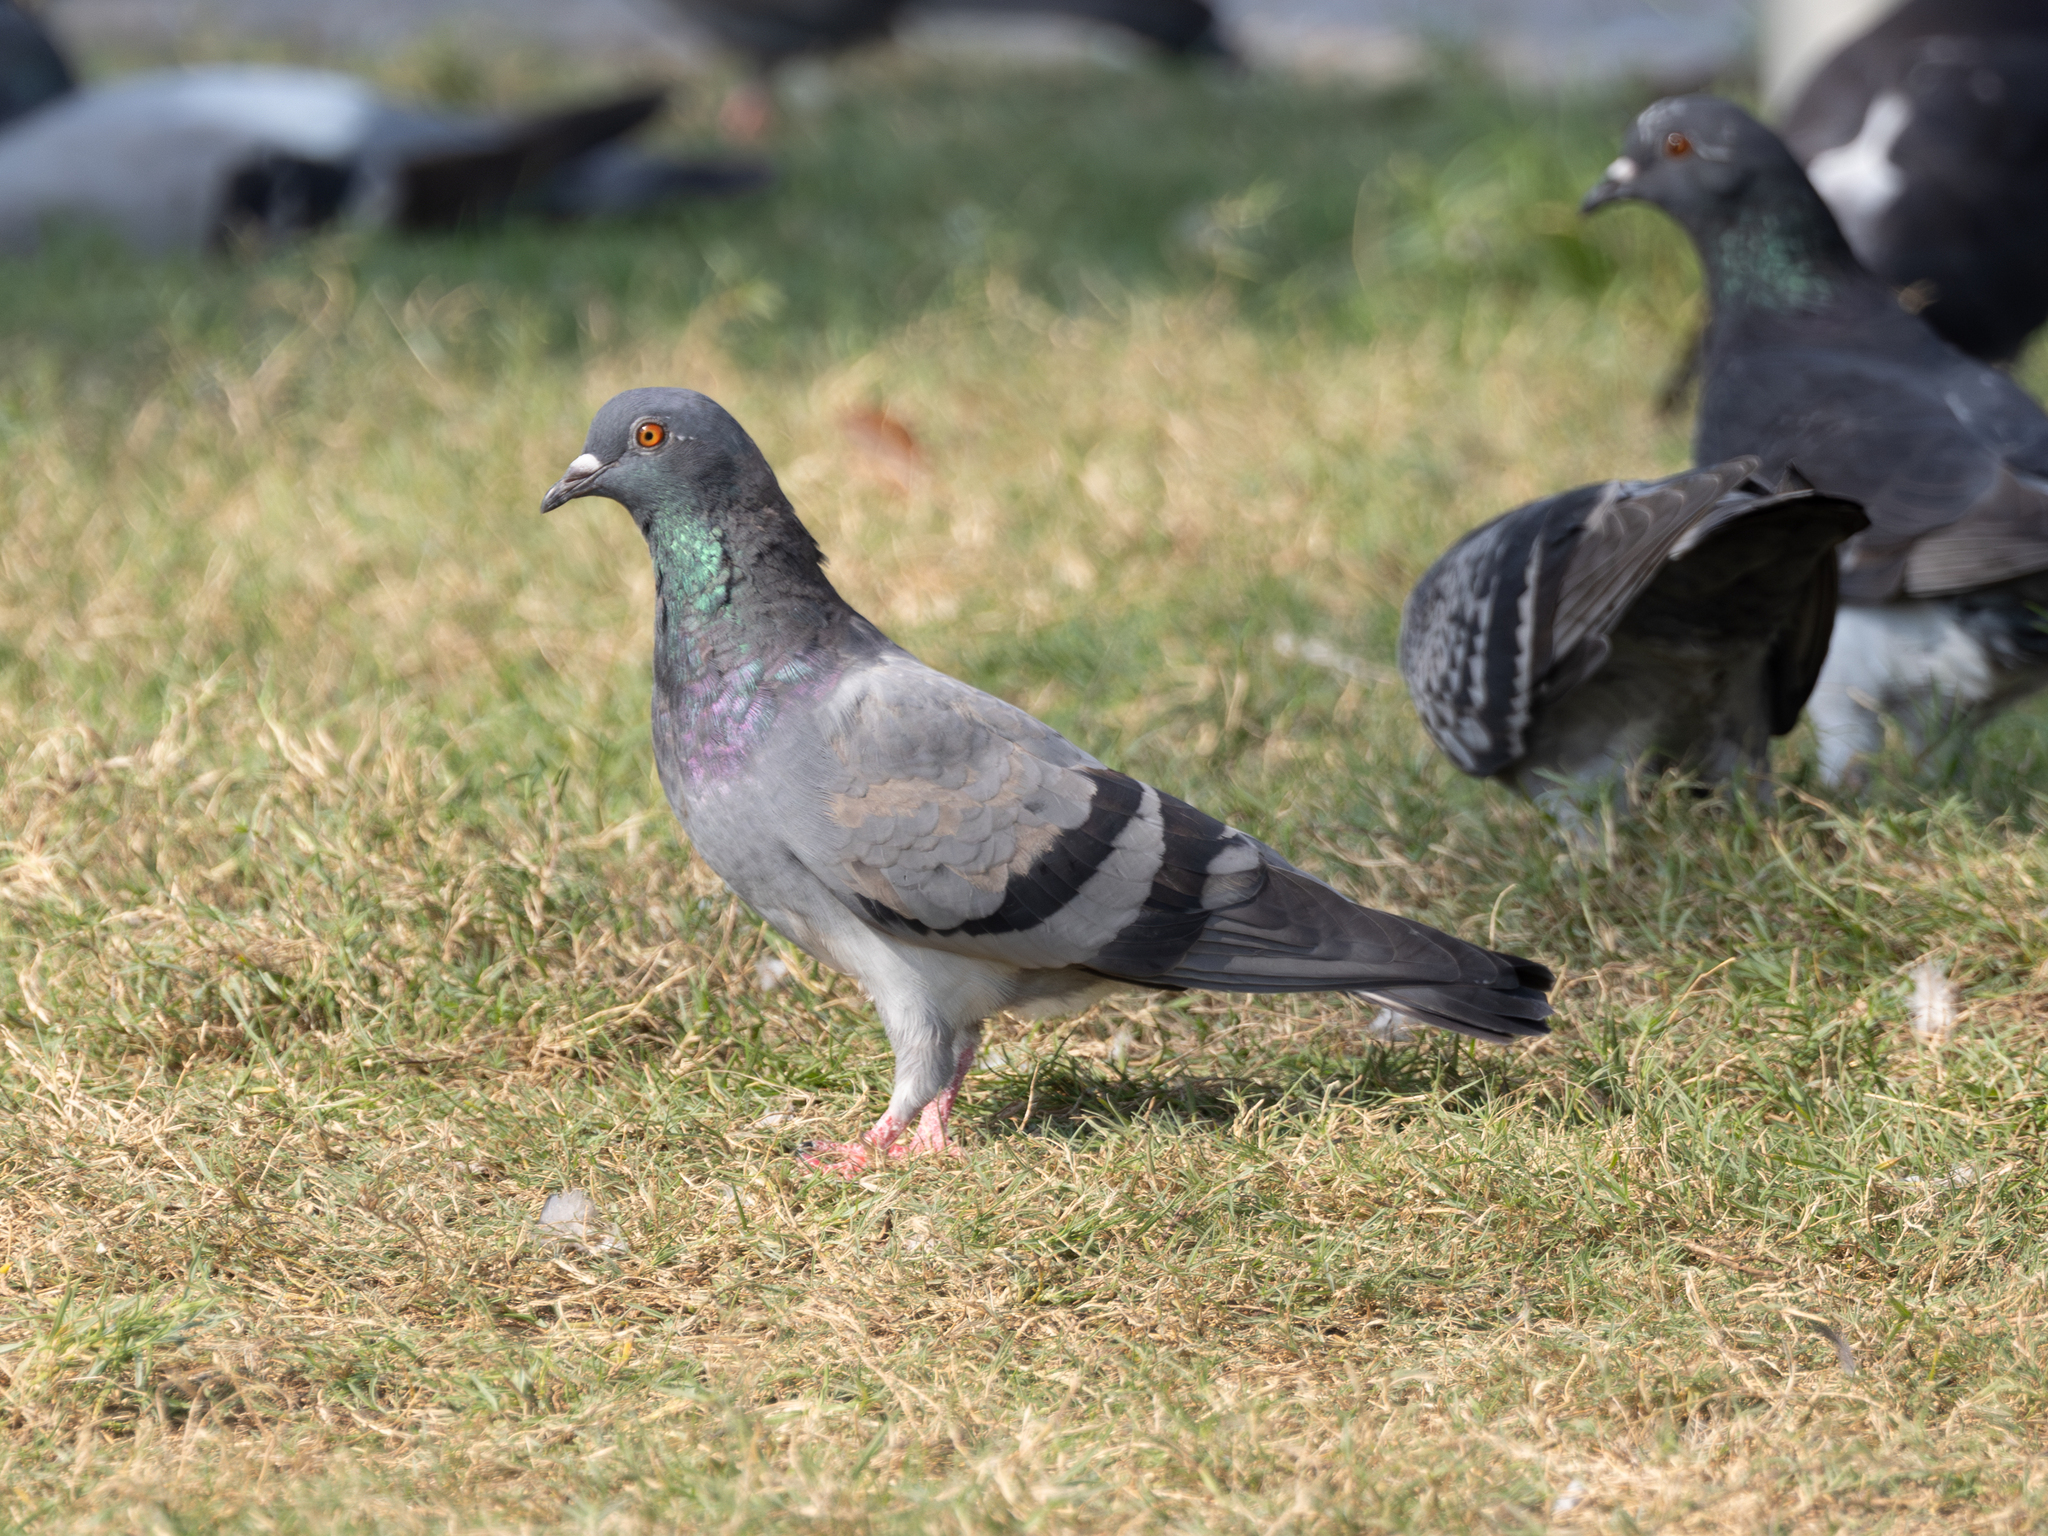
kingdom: Animalia
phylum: Chordata
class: Aves
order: Columbiformes
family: Columbidae
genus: Columba
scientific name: Columba livia
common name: Rock pigeon
